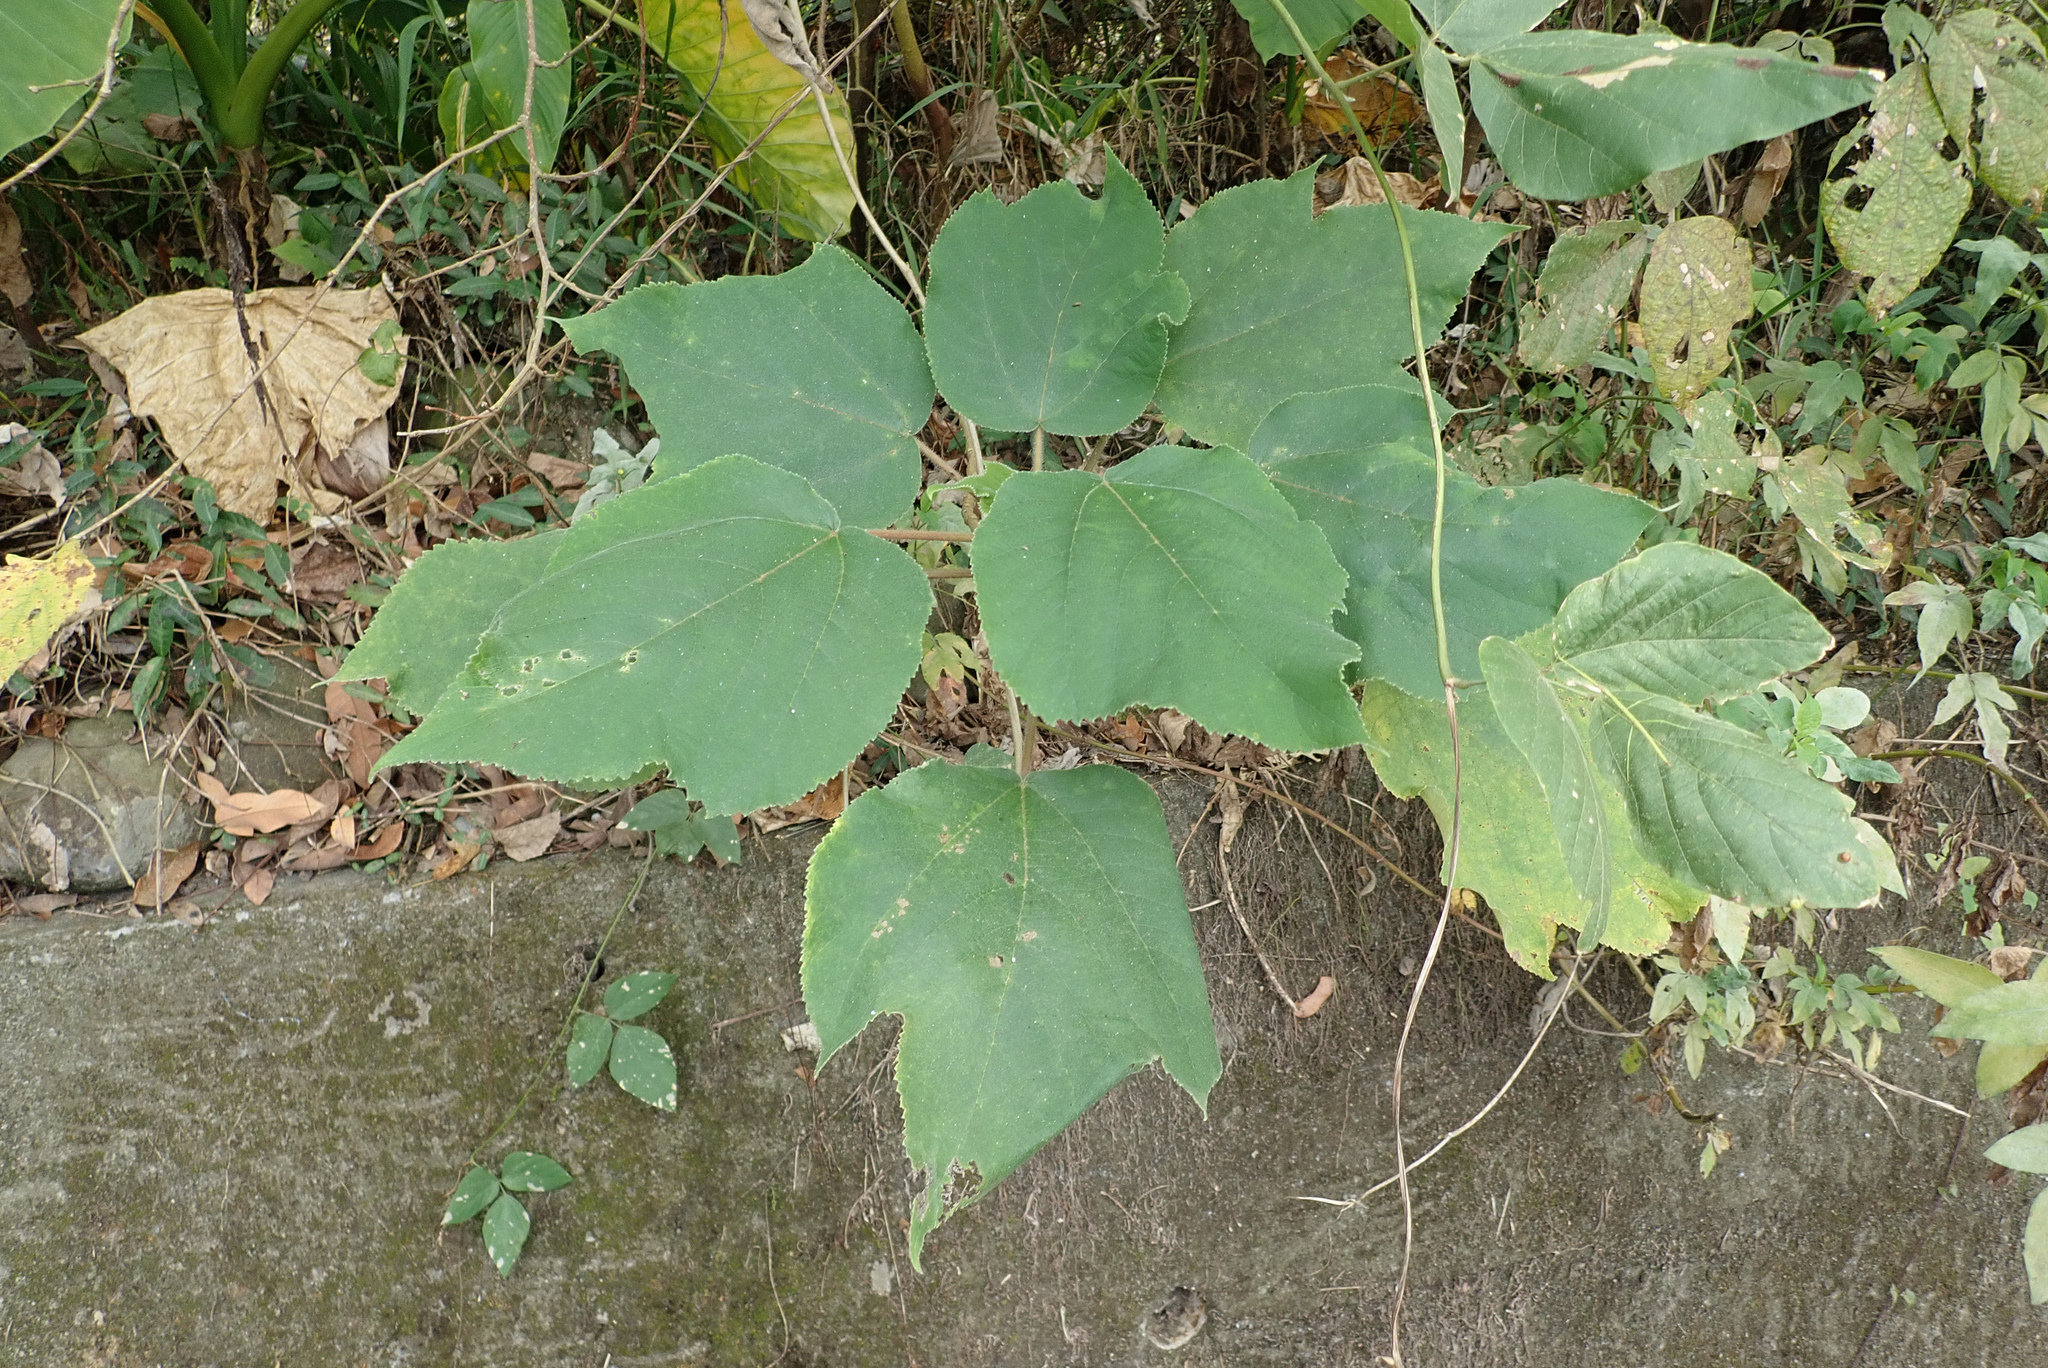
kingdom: Plantae
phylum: Tracheophyta
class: Magnoliopsida
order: Rosales
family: Moraceae
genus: Broussonetia
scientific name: Broussonetia papyrifera
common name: Paper mulberry
